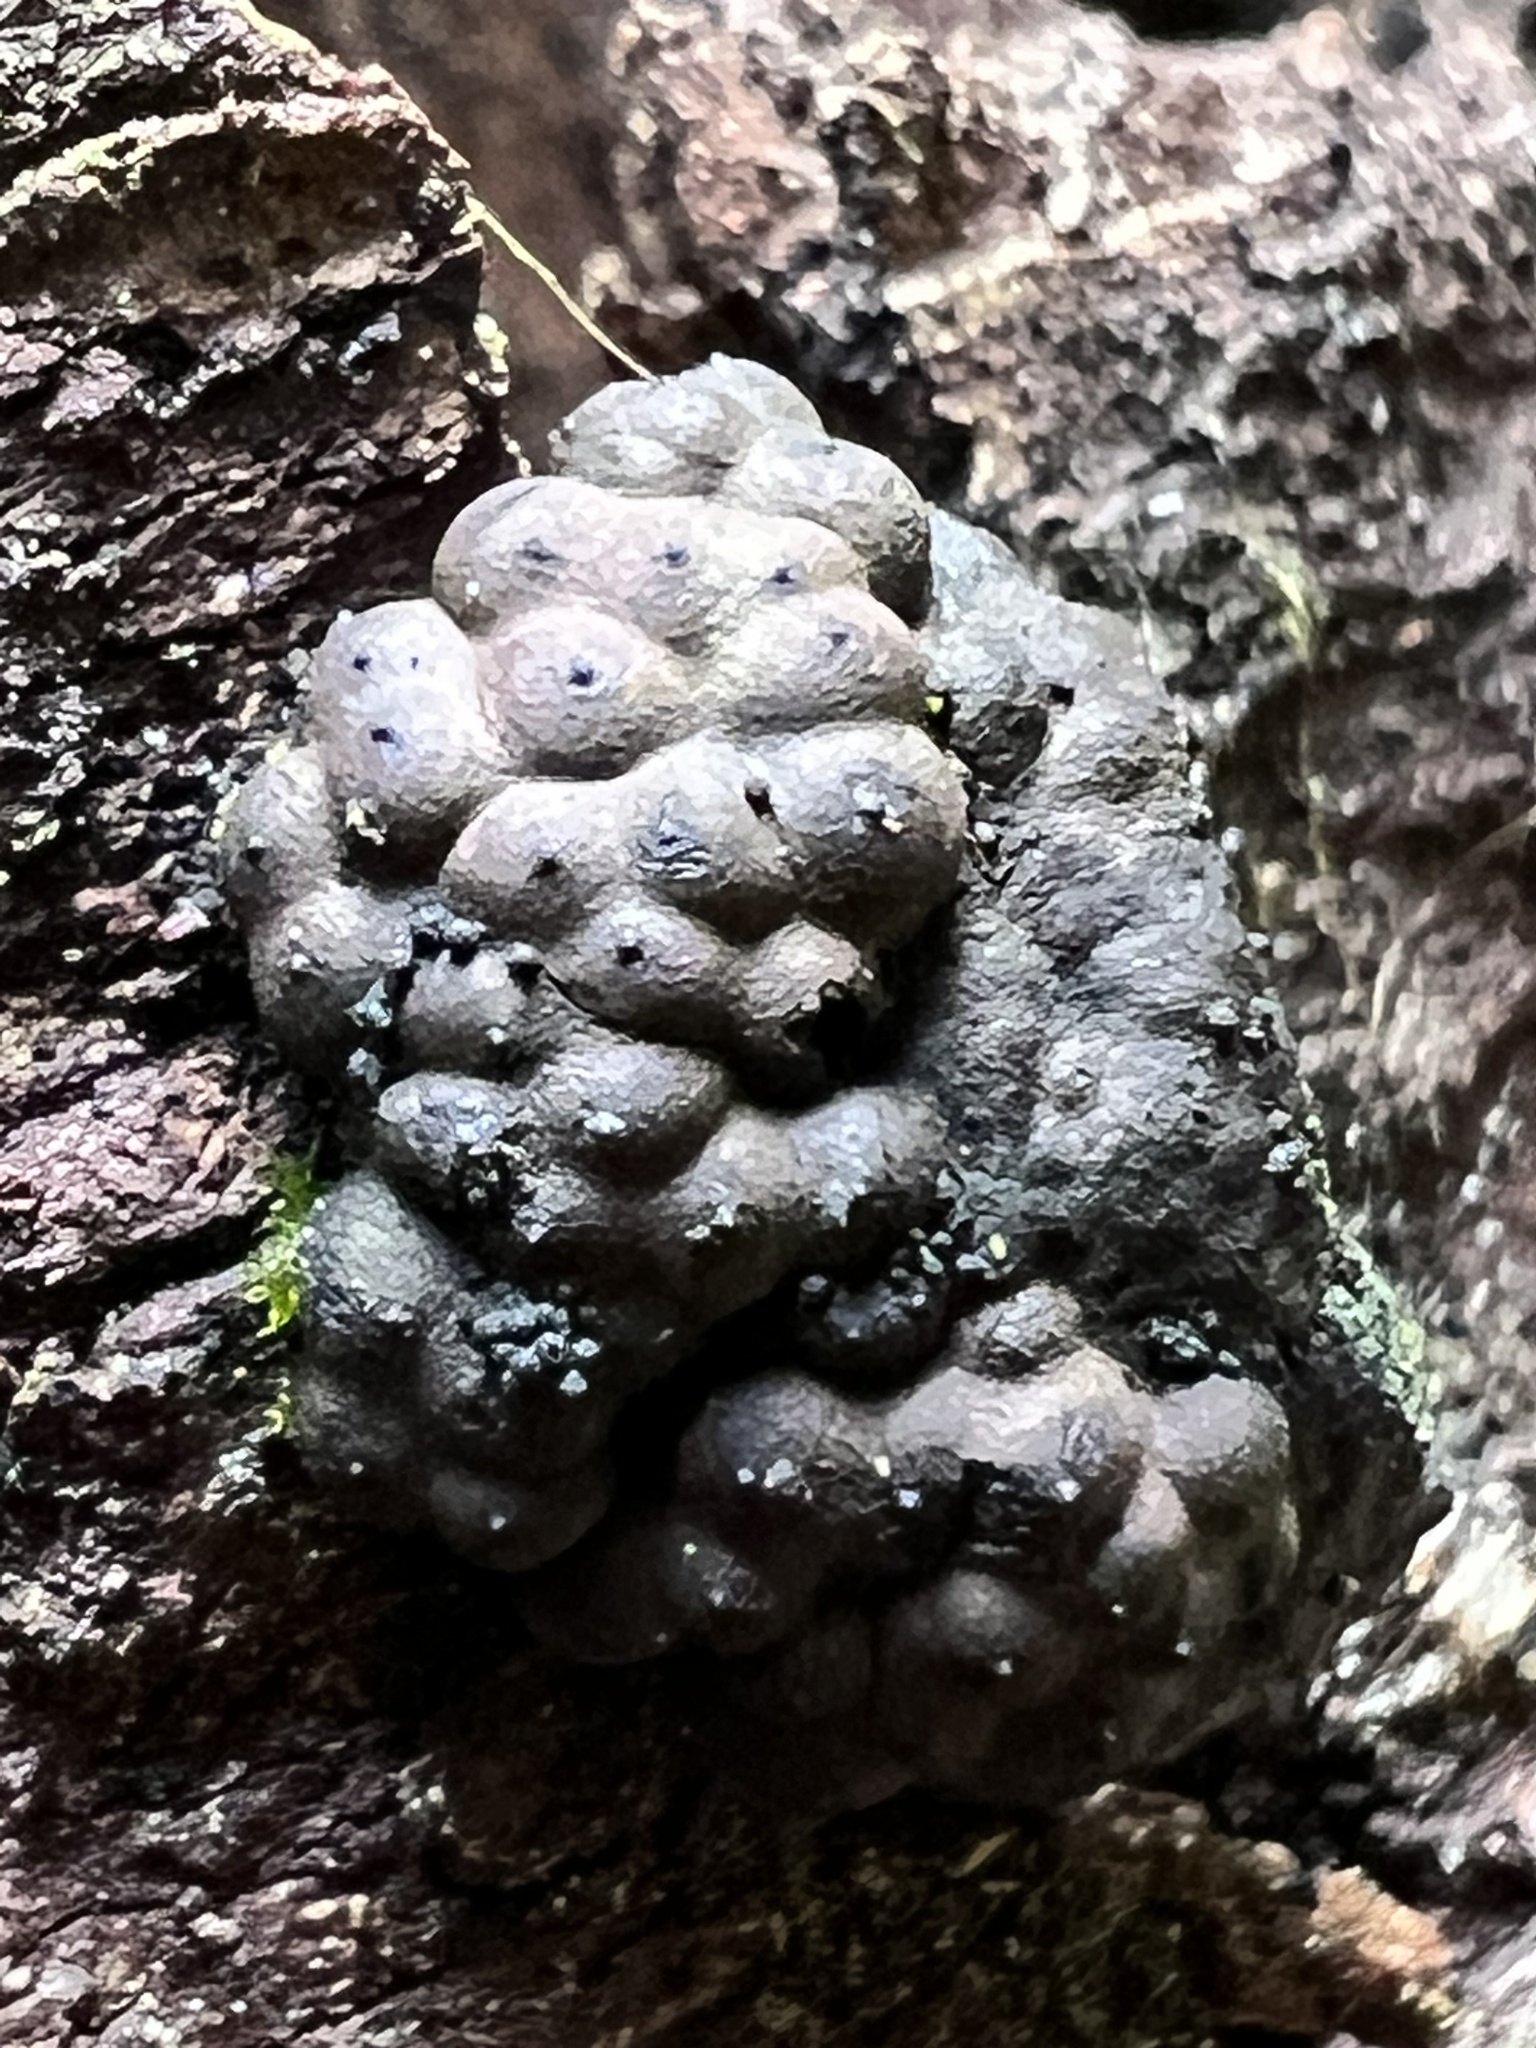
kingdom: Fungi
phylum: Ascomycota
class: Sordariomycetes
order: Xylariales
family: Hypoxylaceae
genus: Jackrogersella
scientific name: Jackrogersella multiformis
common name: Birch woodwart
